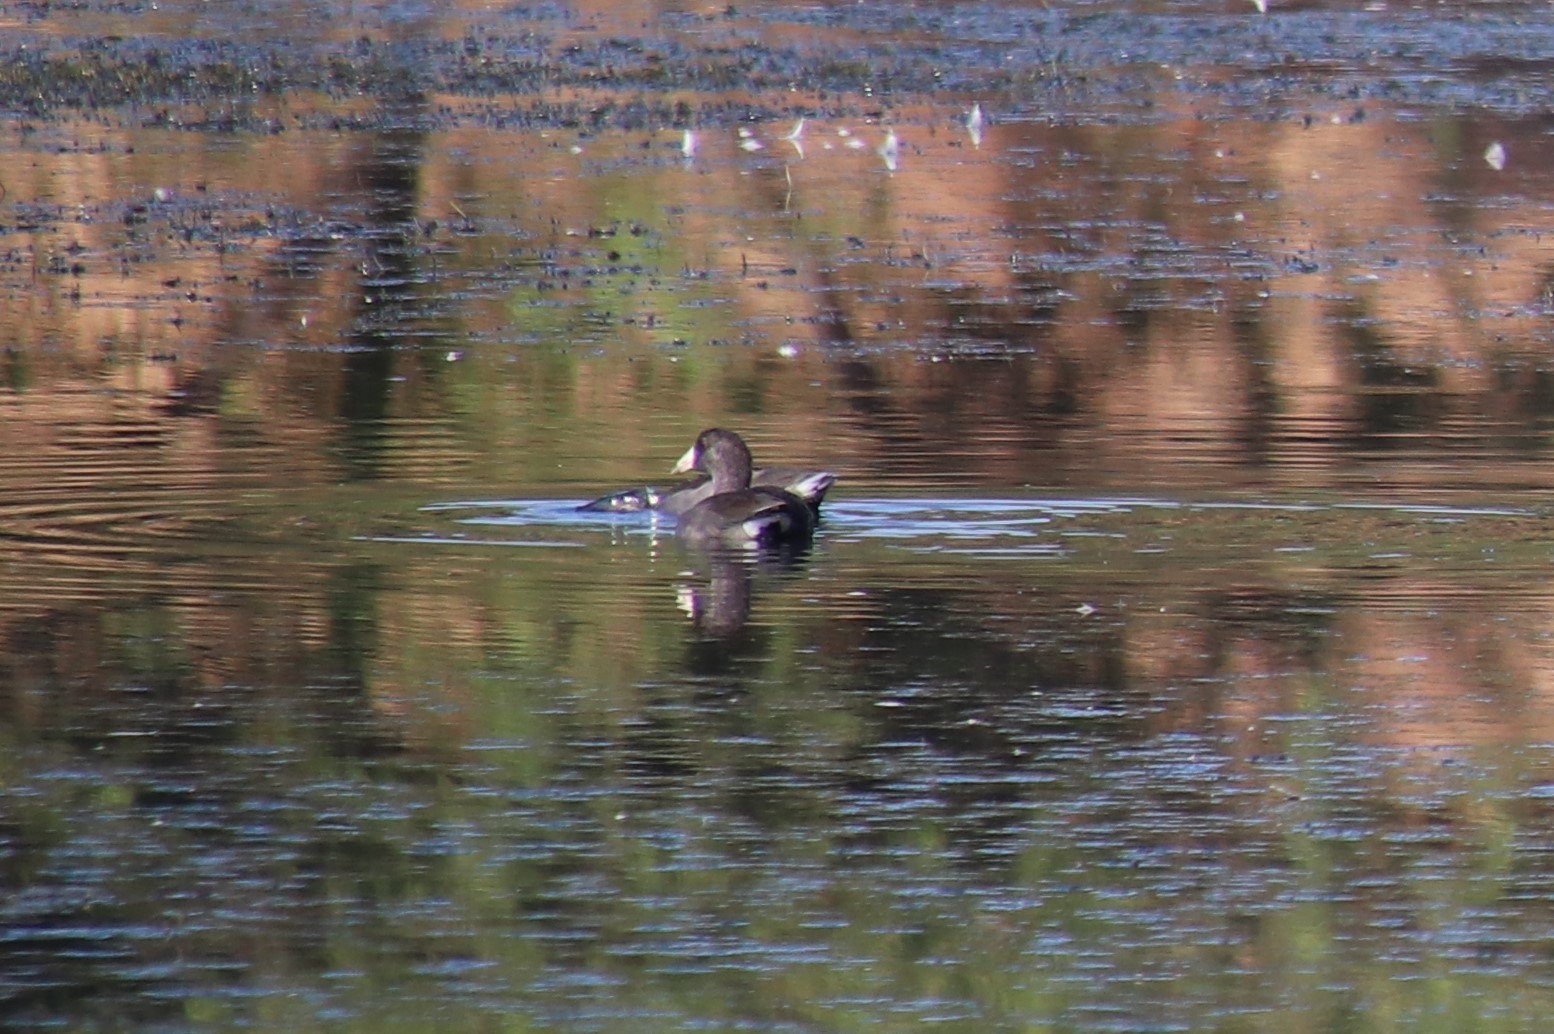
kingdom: Animalia
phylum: Chordata
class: Aves
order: Gruiformes
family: Rallidae
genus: Fulica
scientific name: Fulica americana
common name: American coot
